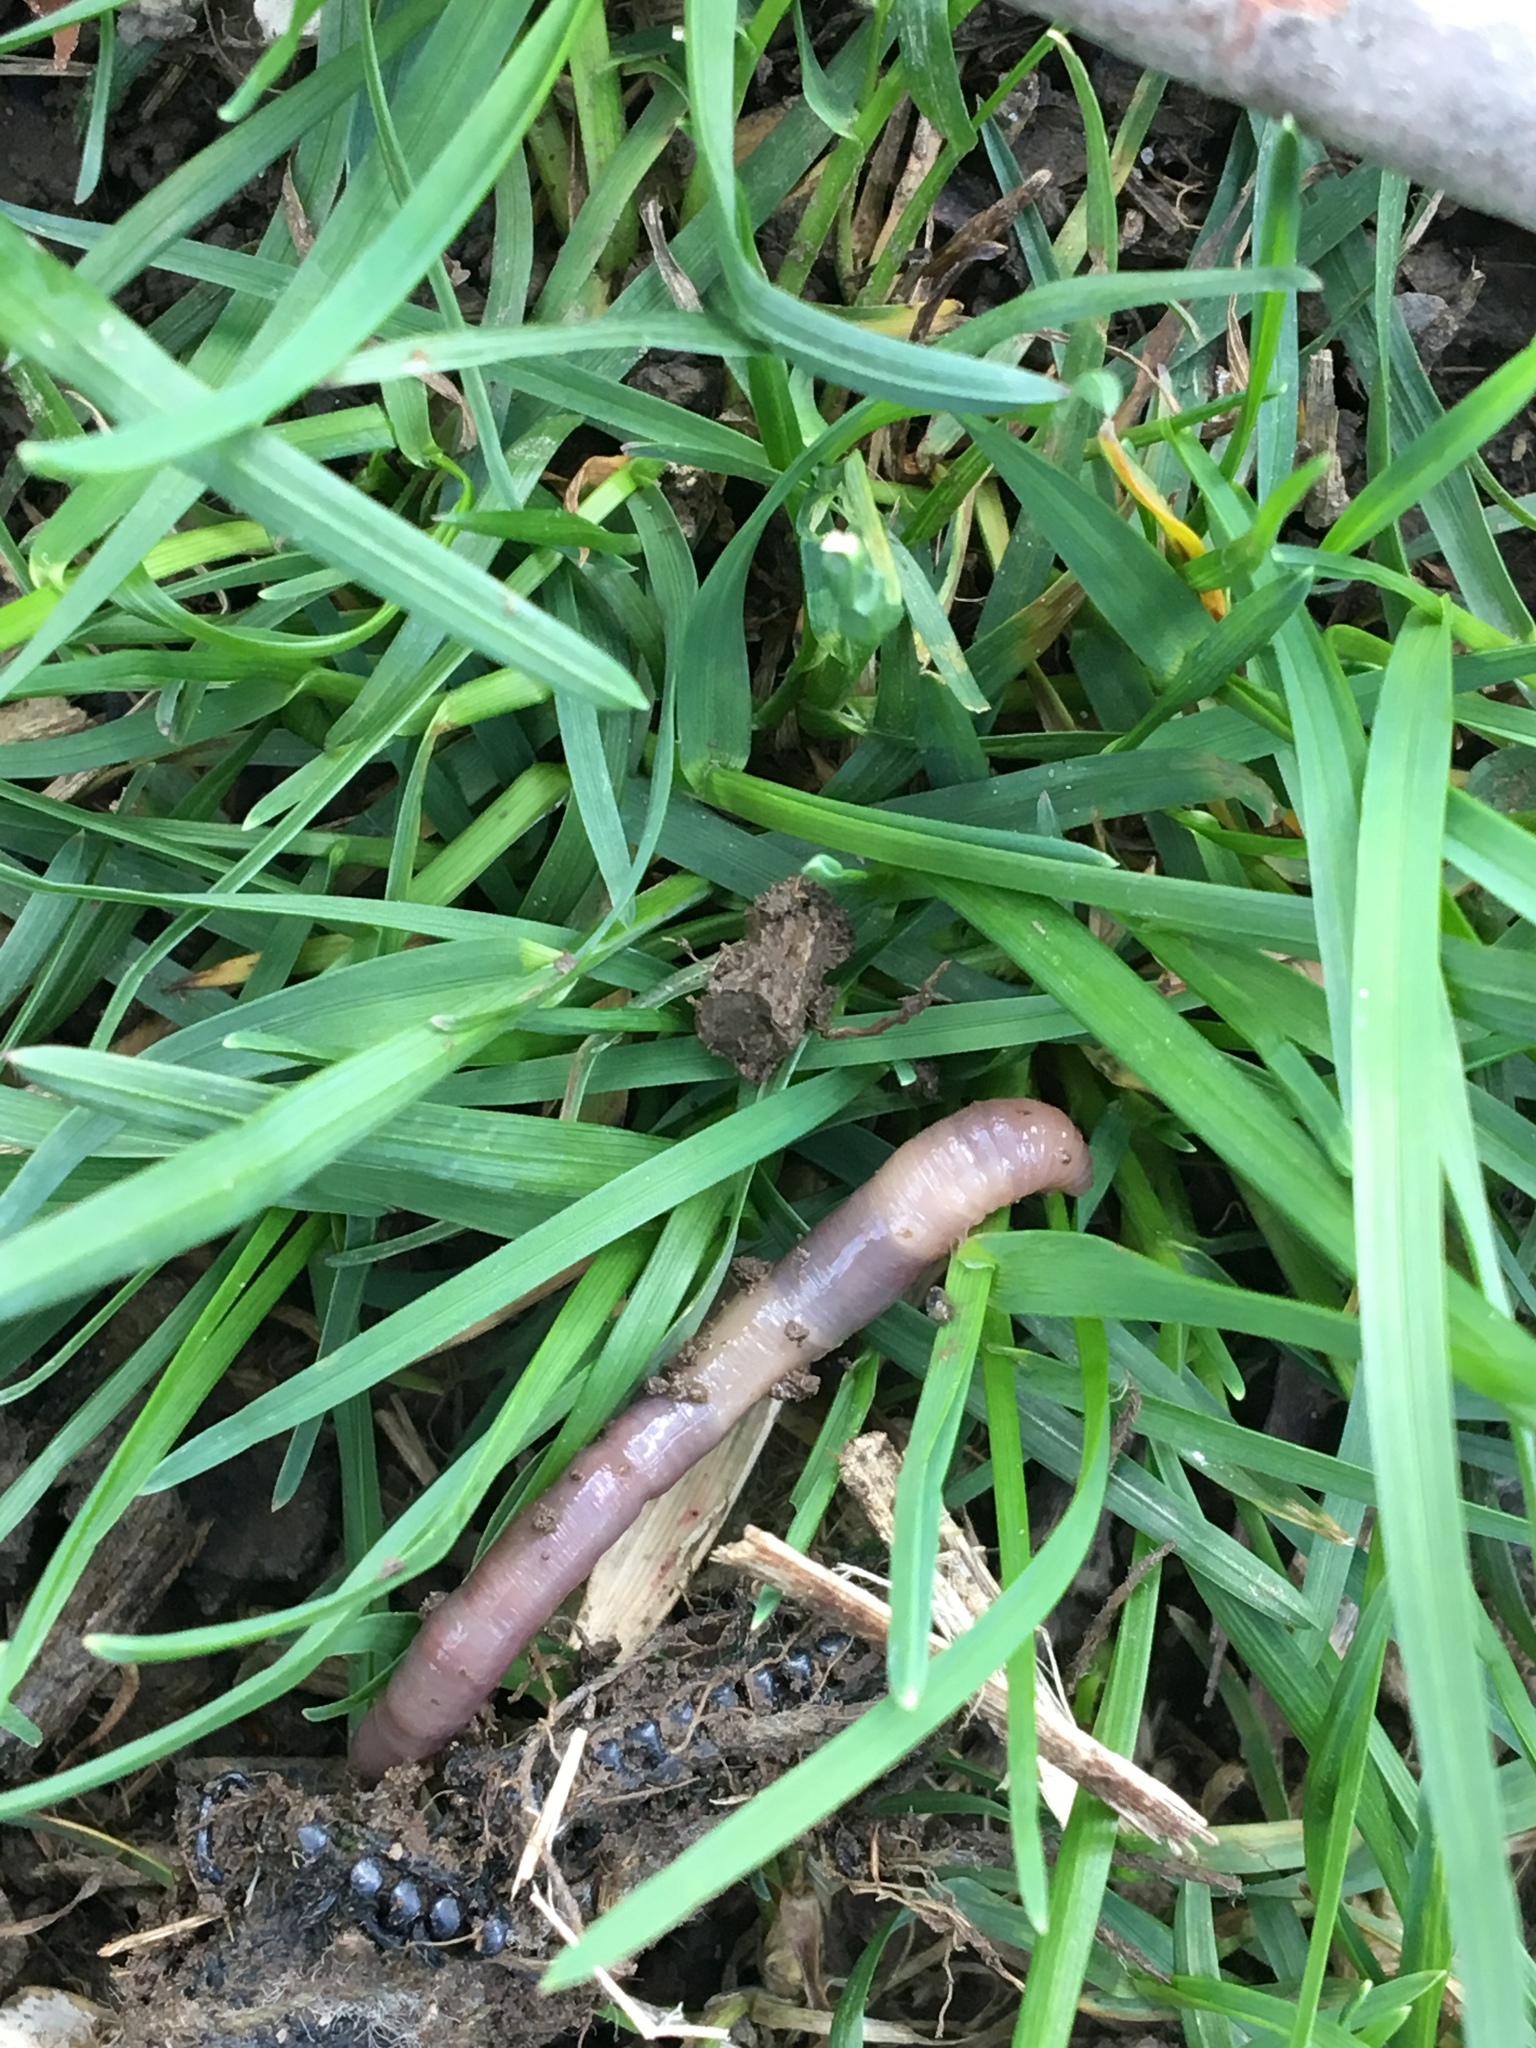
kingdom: Animalia
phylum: Annelida
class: Clitellata
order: Crassiclitellata
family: Lumbricidae
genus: Lumbricus
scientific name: Lumbricus terrestris
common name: Common earthworm
